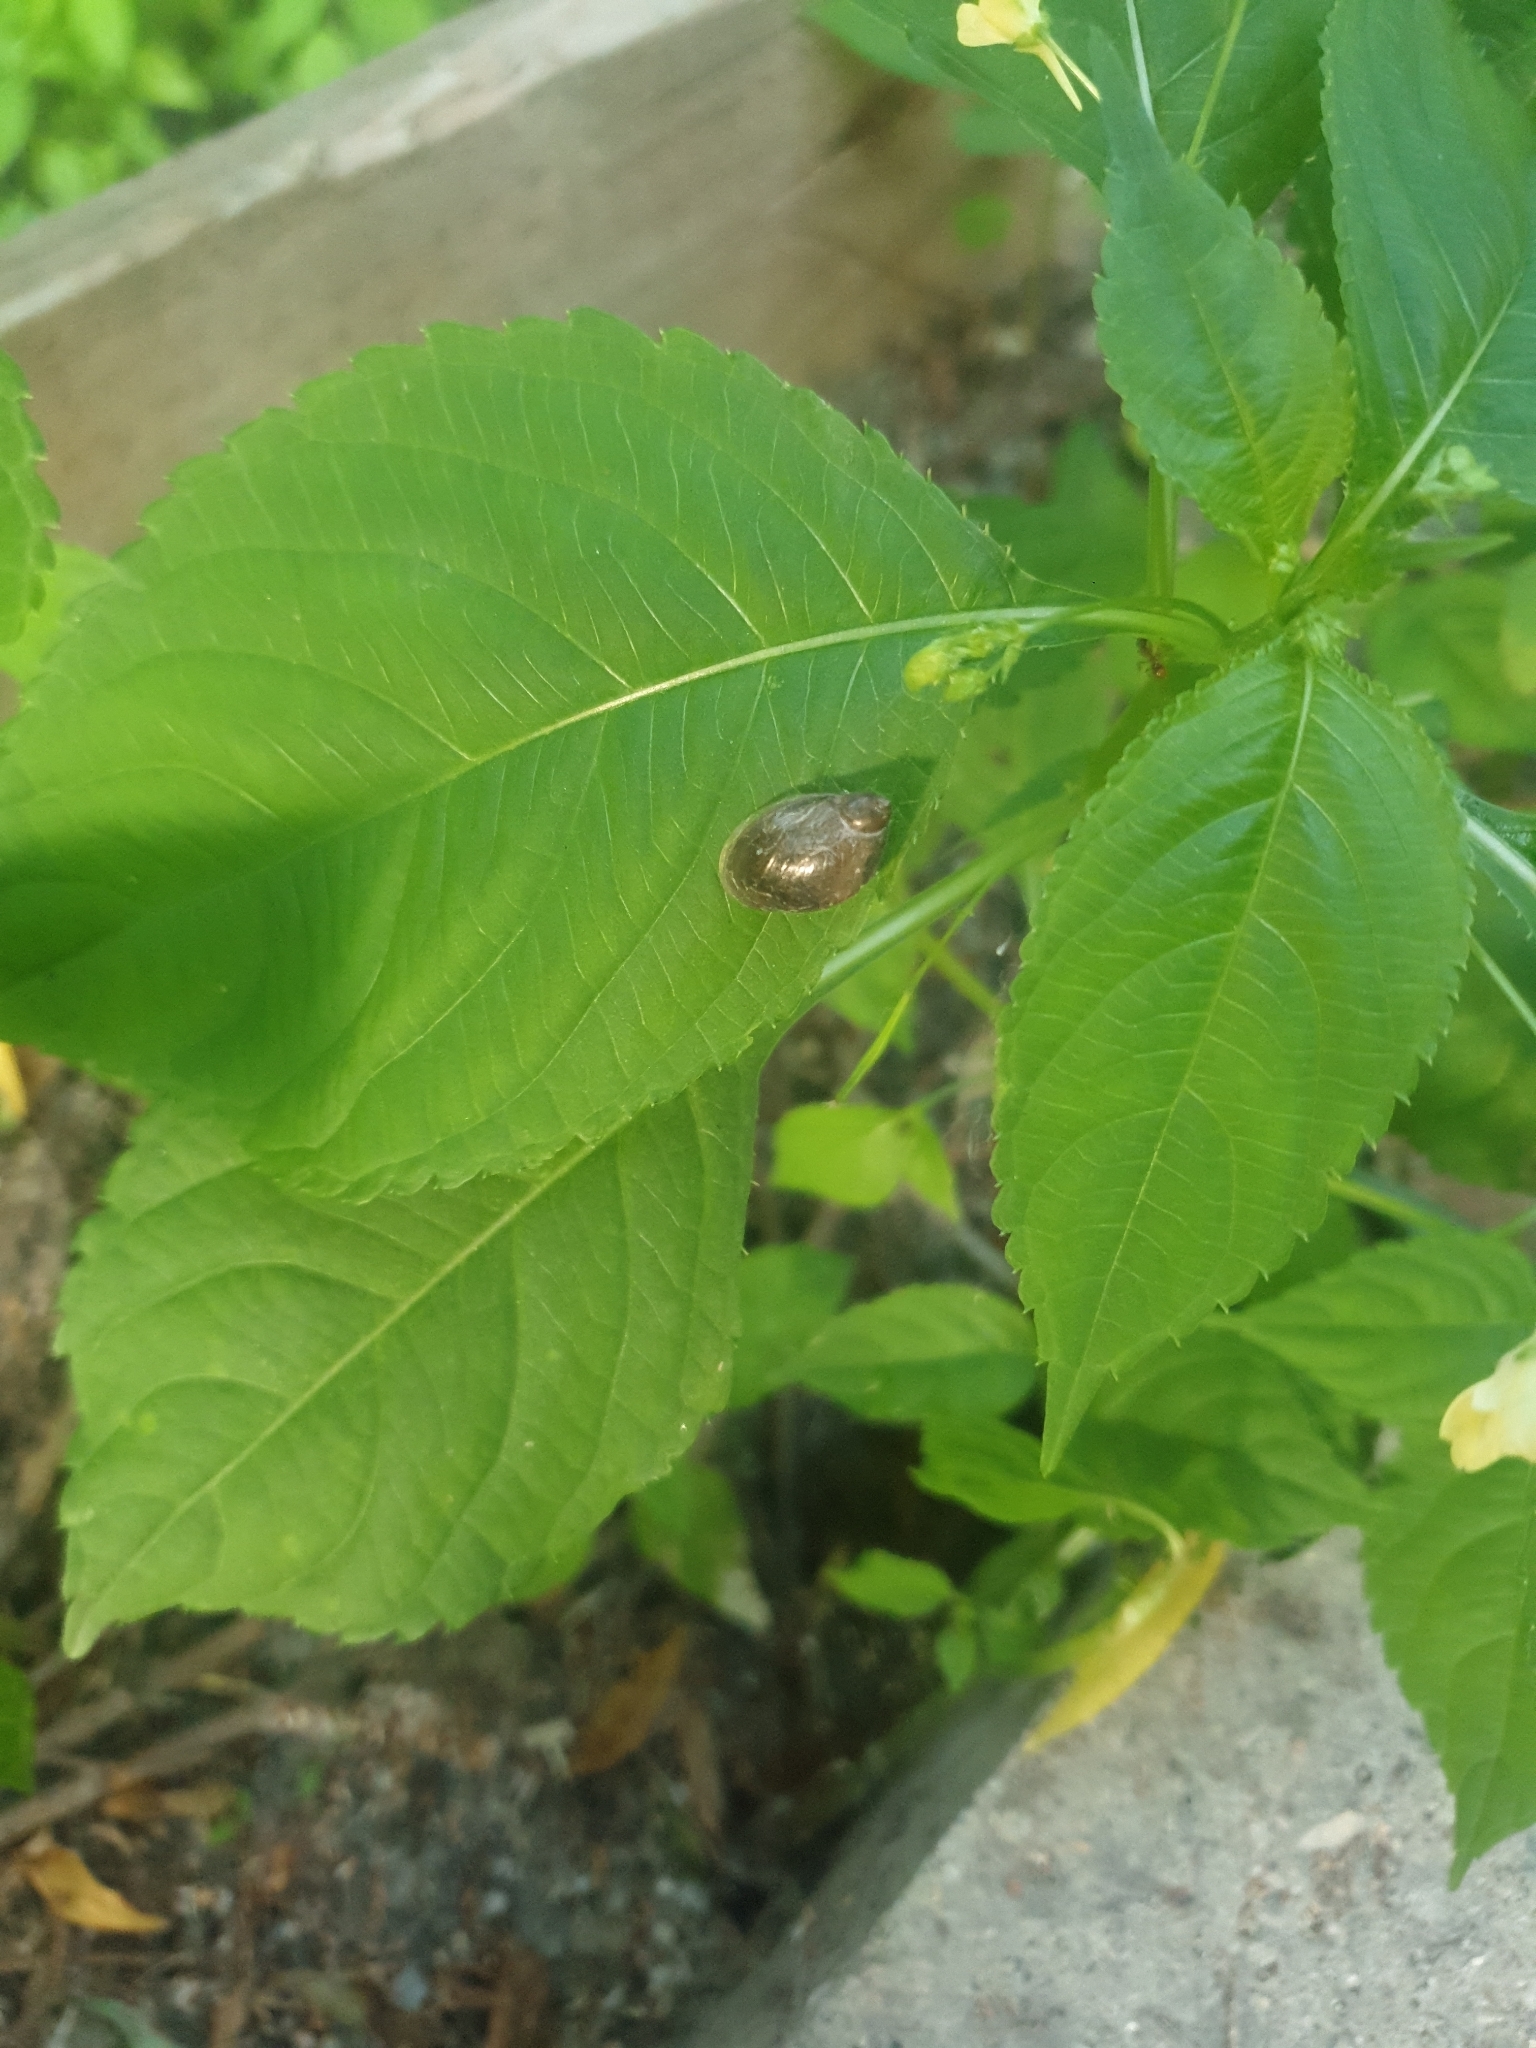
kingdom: Animalia
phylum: Mollusca
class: Gastropoda
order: Stylommatophora
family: Succineidae
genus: Succinea
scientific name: Succinea putris
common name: European ambersnail
